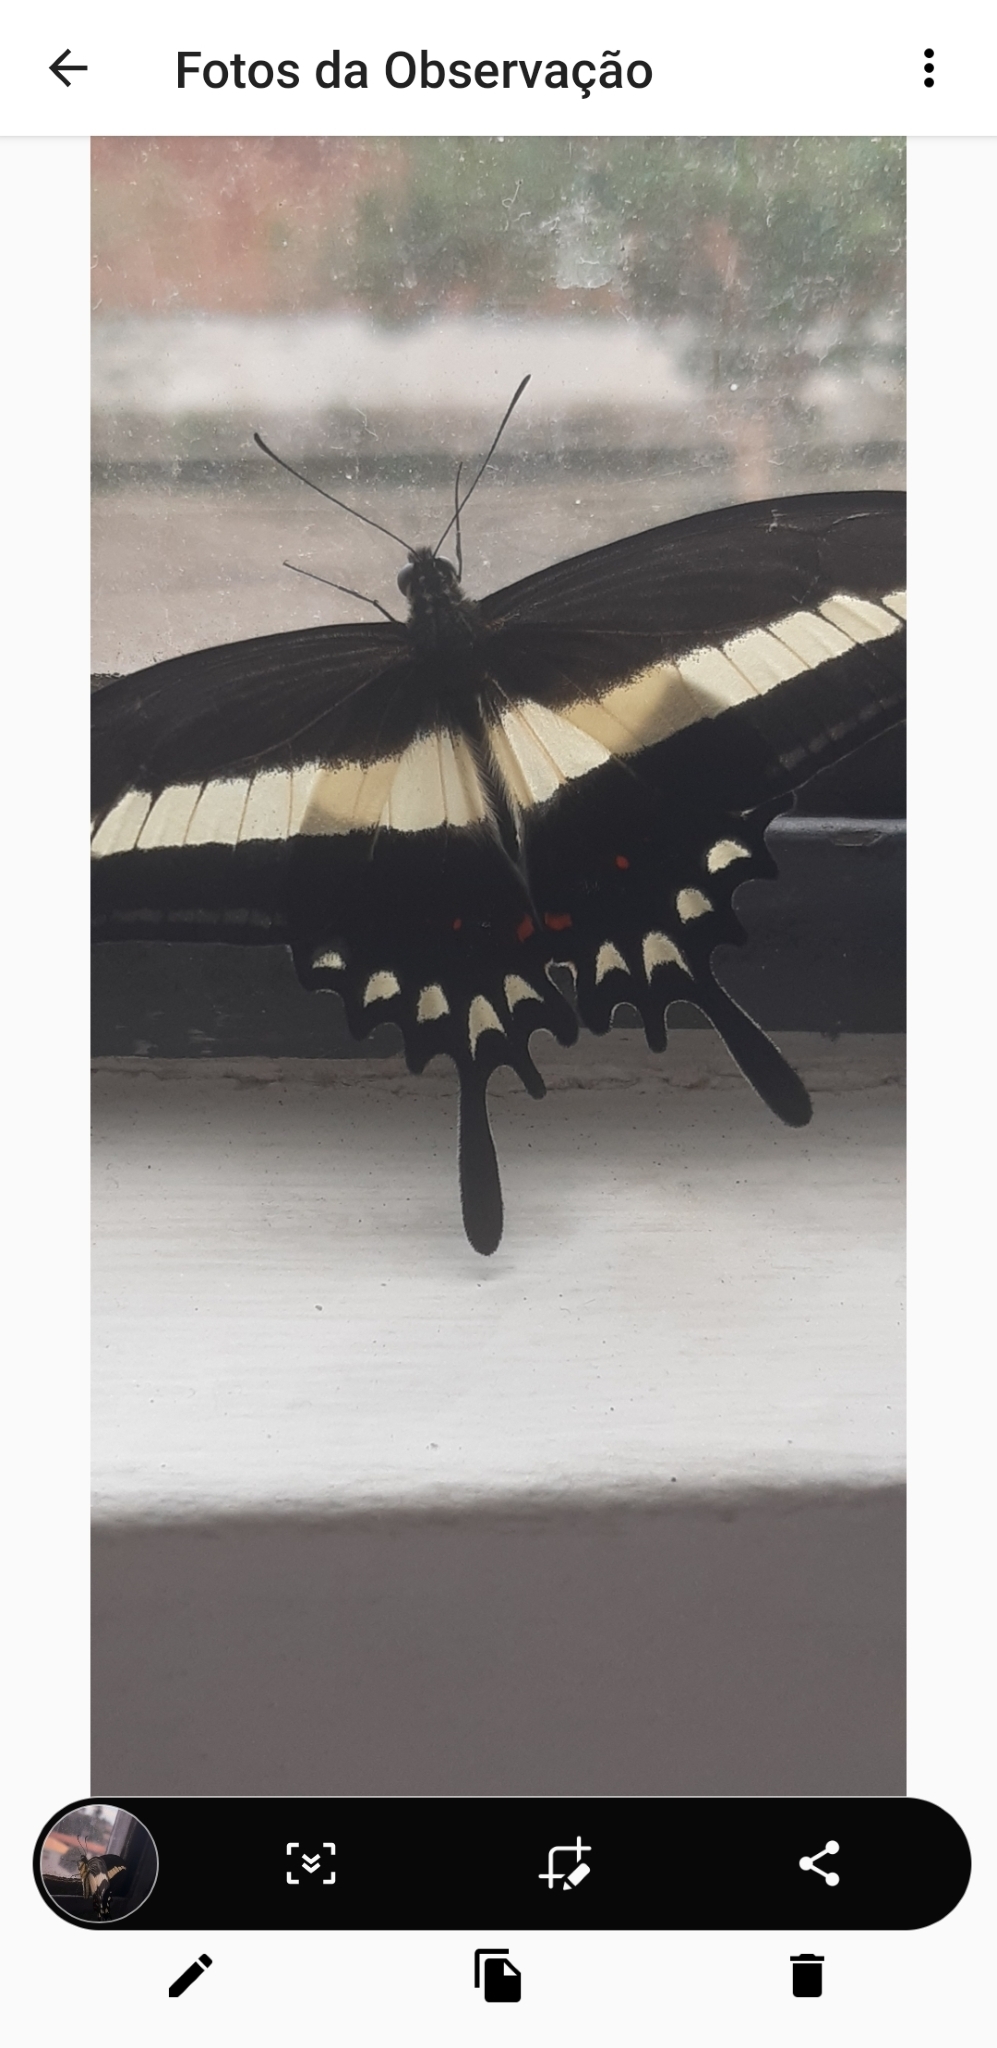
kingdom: Animalia
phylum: Arthropoda
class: Insecta
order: Lepidoptera
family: Papilionidae
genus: Heraclides
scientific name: Heraclides hectorides
